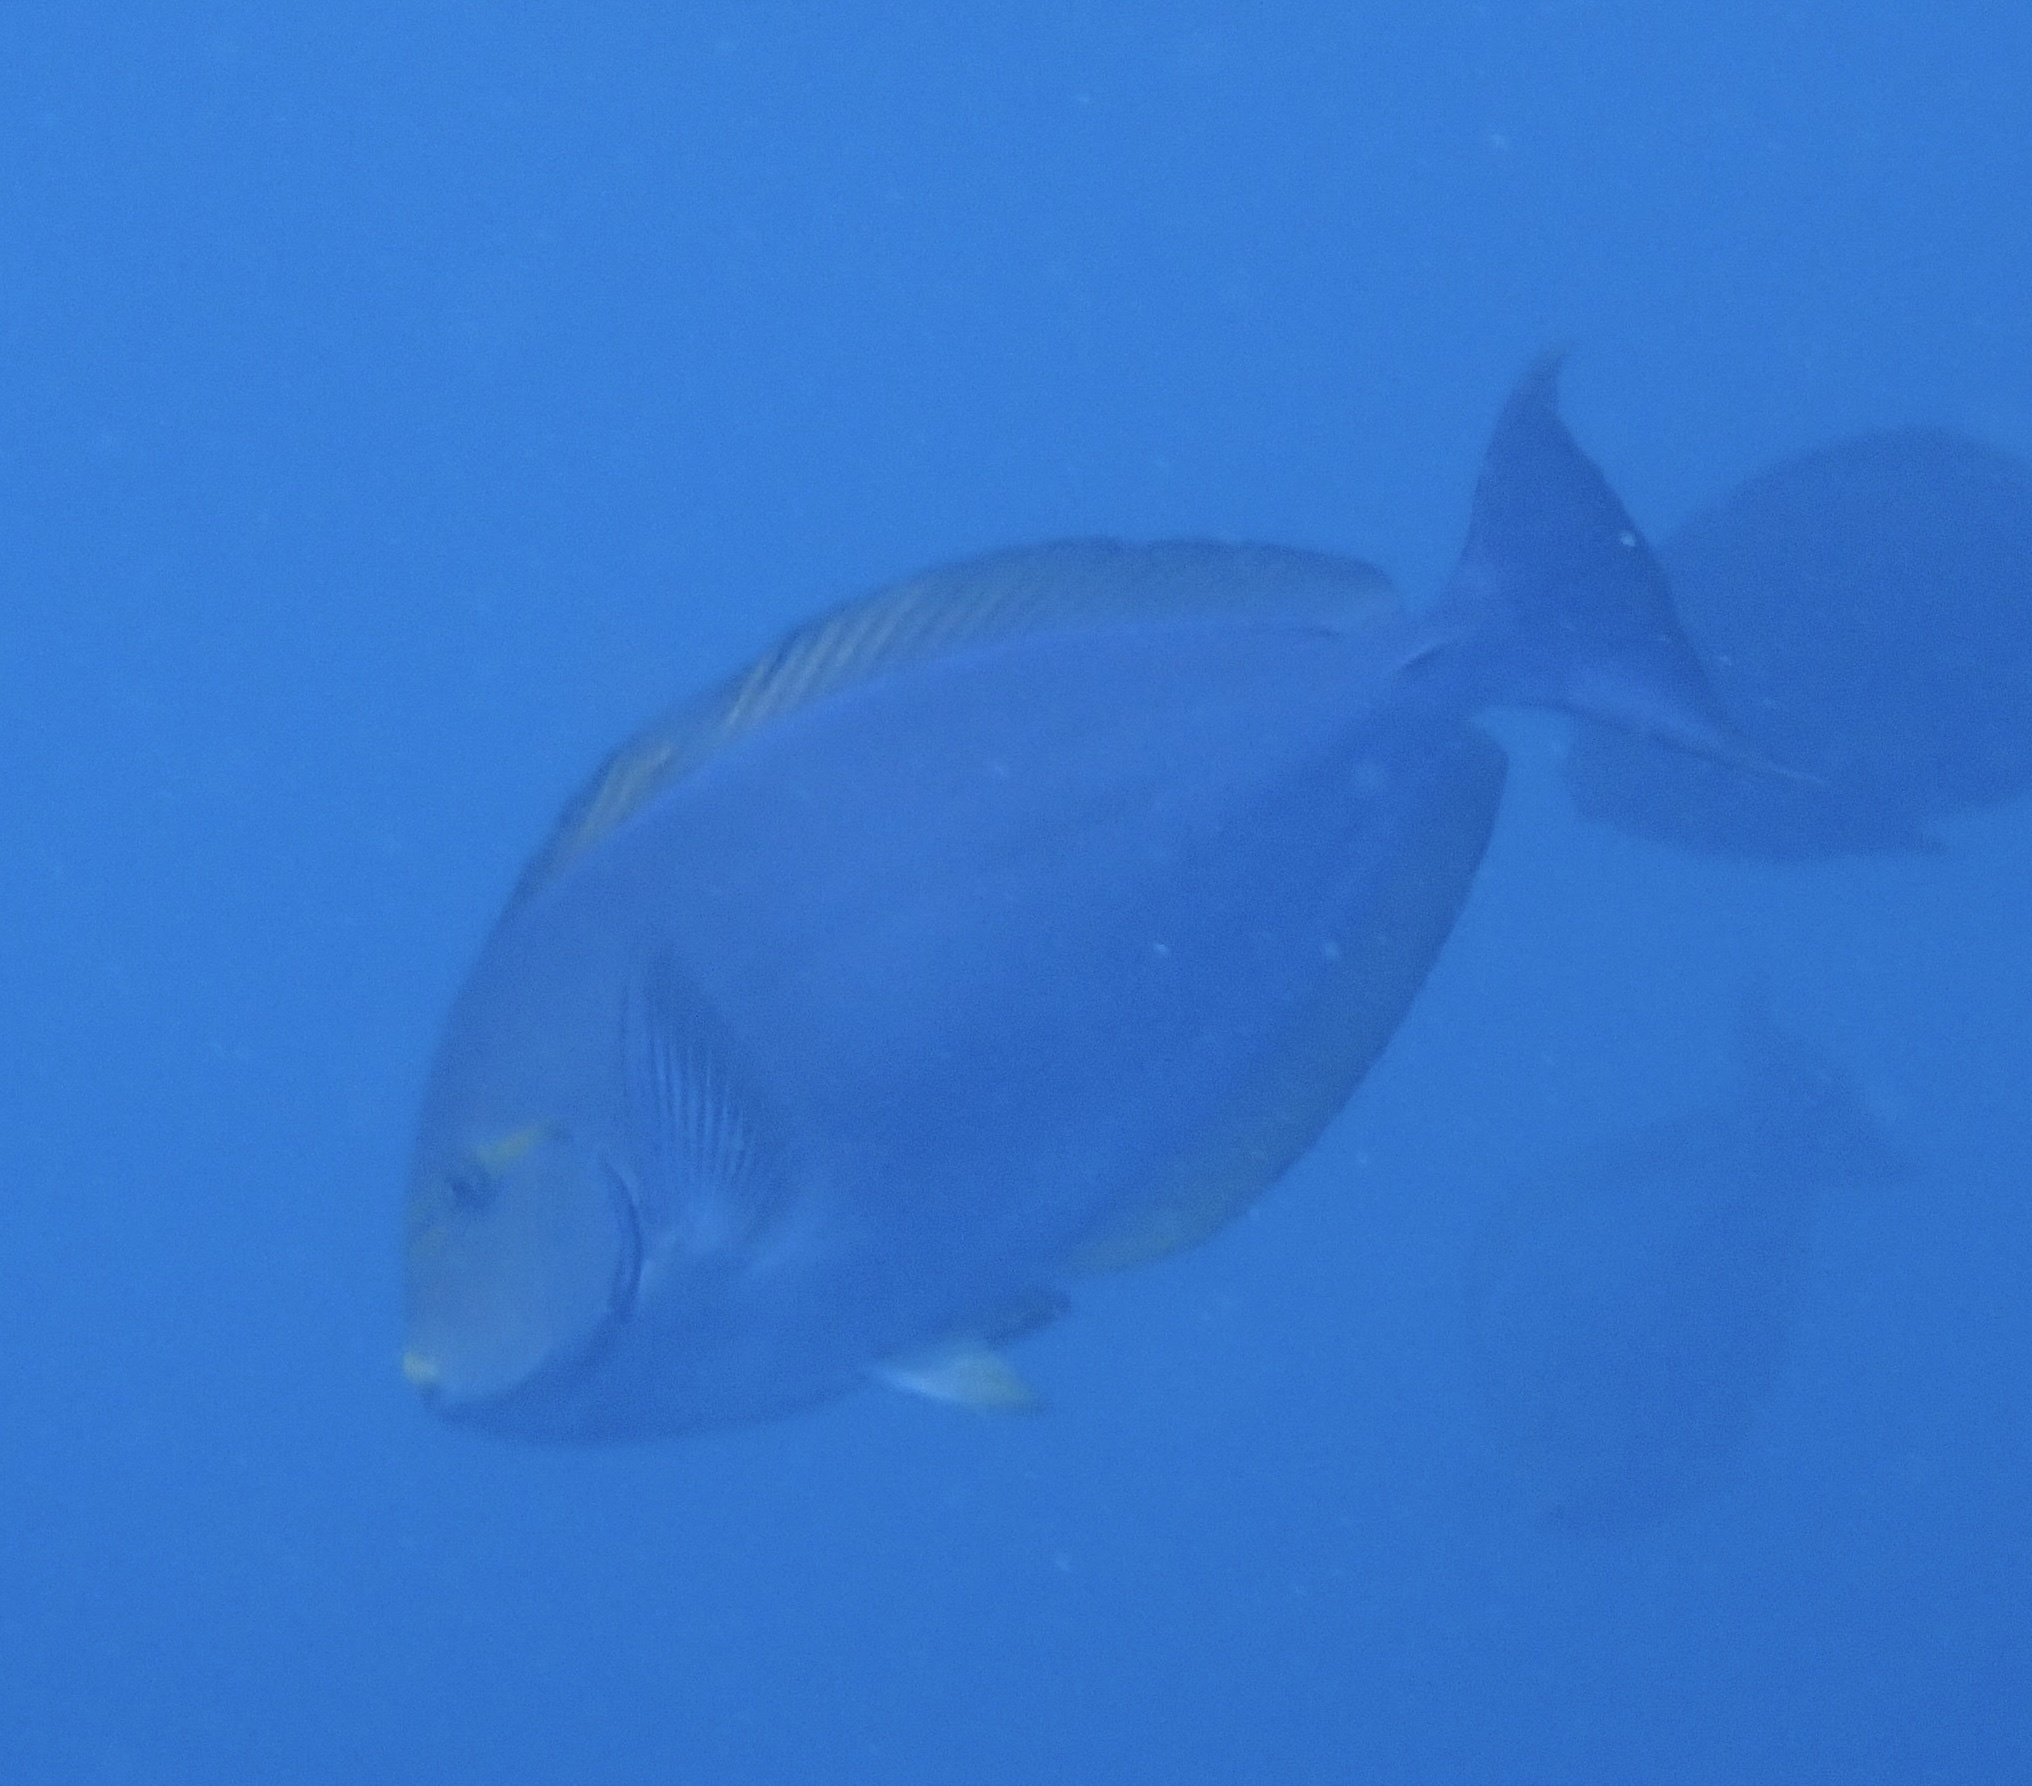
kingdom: Animalia
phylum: Chordata
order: Perciformes
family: Acanthuridae
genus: Acanthurus
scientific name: Acanthurus mata
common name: Bleeker's surgeonfish
